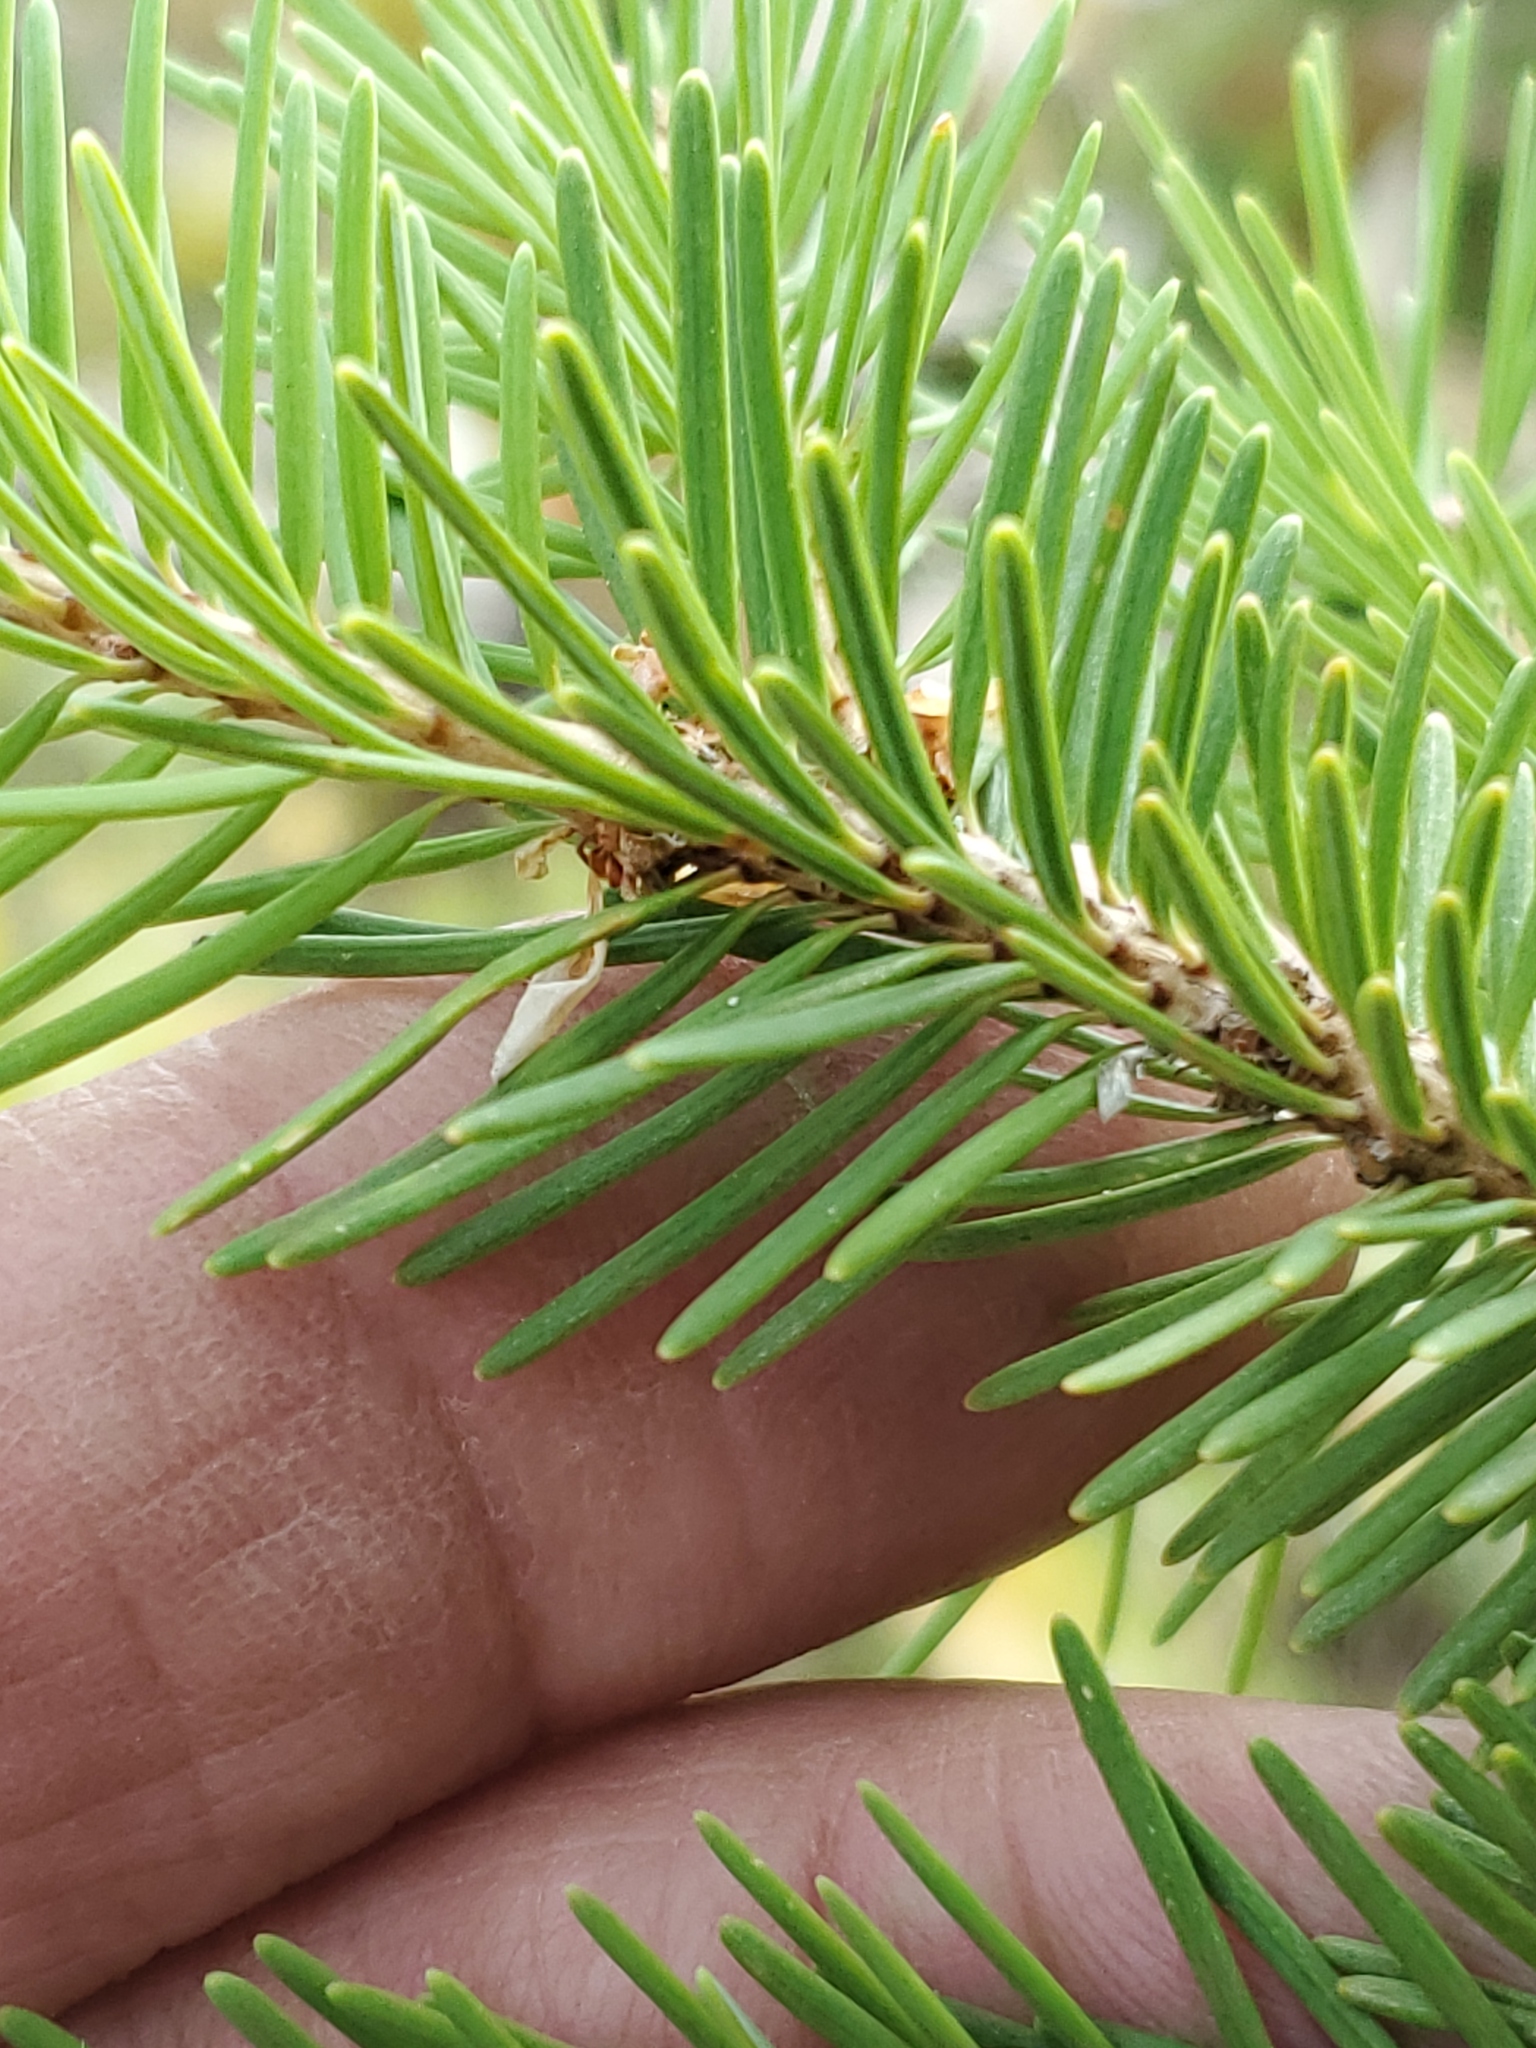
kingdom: Plantae
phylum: Tracheophyta
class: Pinopsida
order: Pinales
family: Pinaceae
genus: Pseudotsuga
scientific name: Pseudotsuga menziesii
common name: Douglas fir
